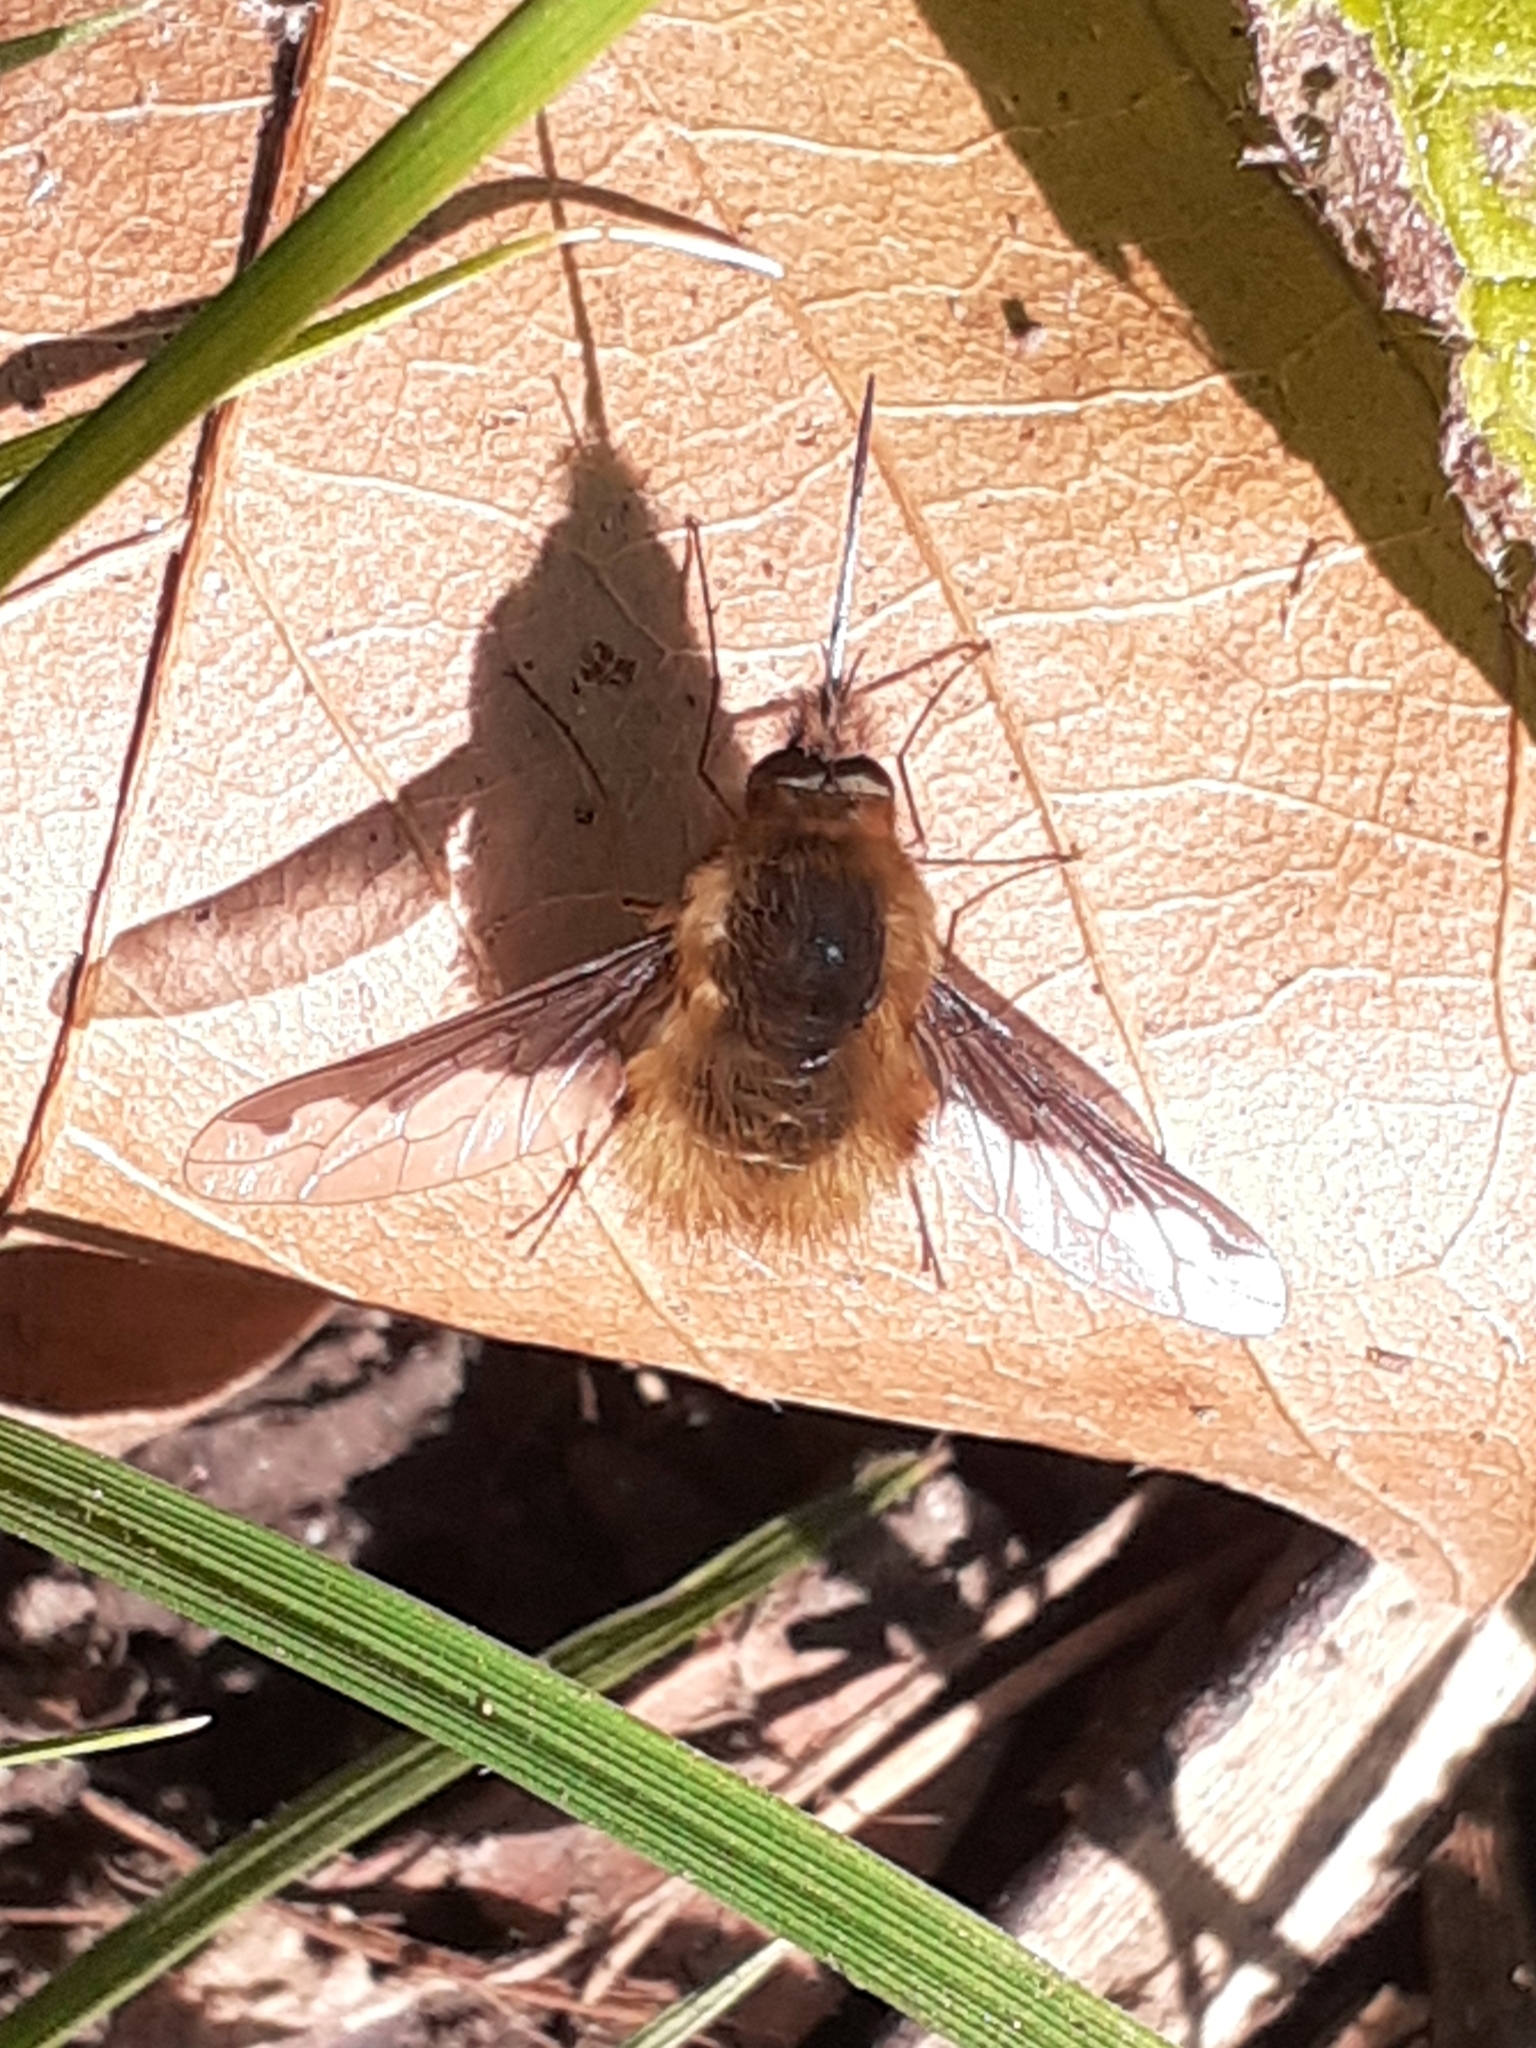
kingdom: Animalia
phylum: Arthropoda
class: Insecta
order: Diptera
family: Bombyliidae
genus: Bombylius
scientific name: Bombylius major
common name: Bee fly
